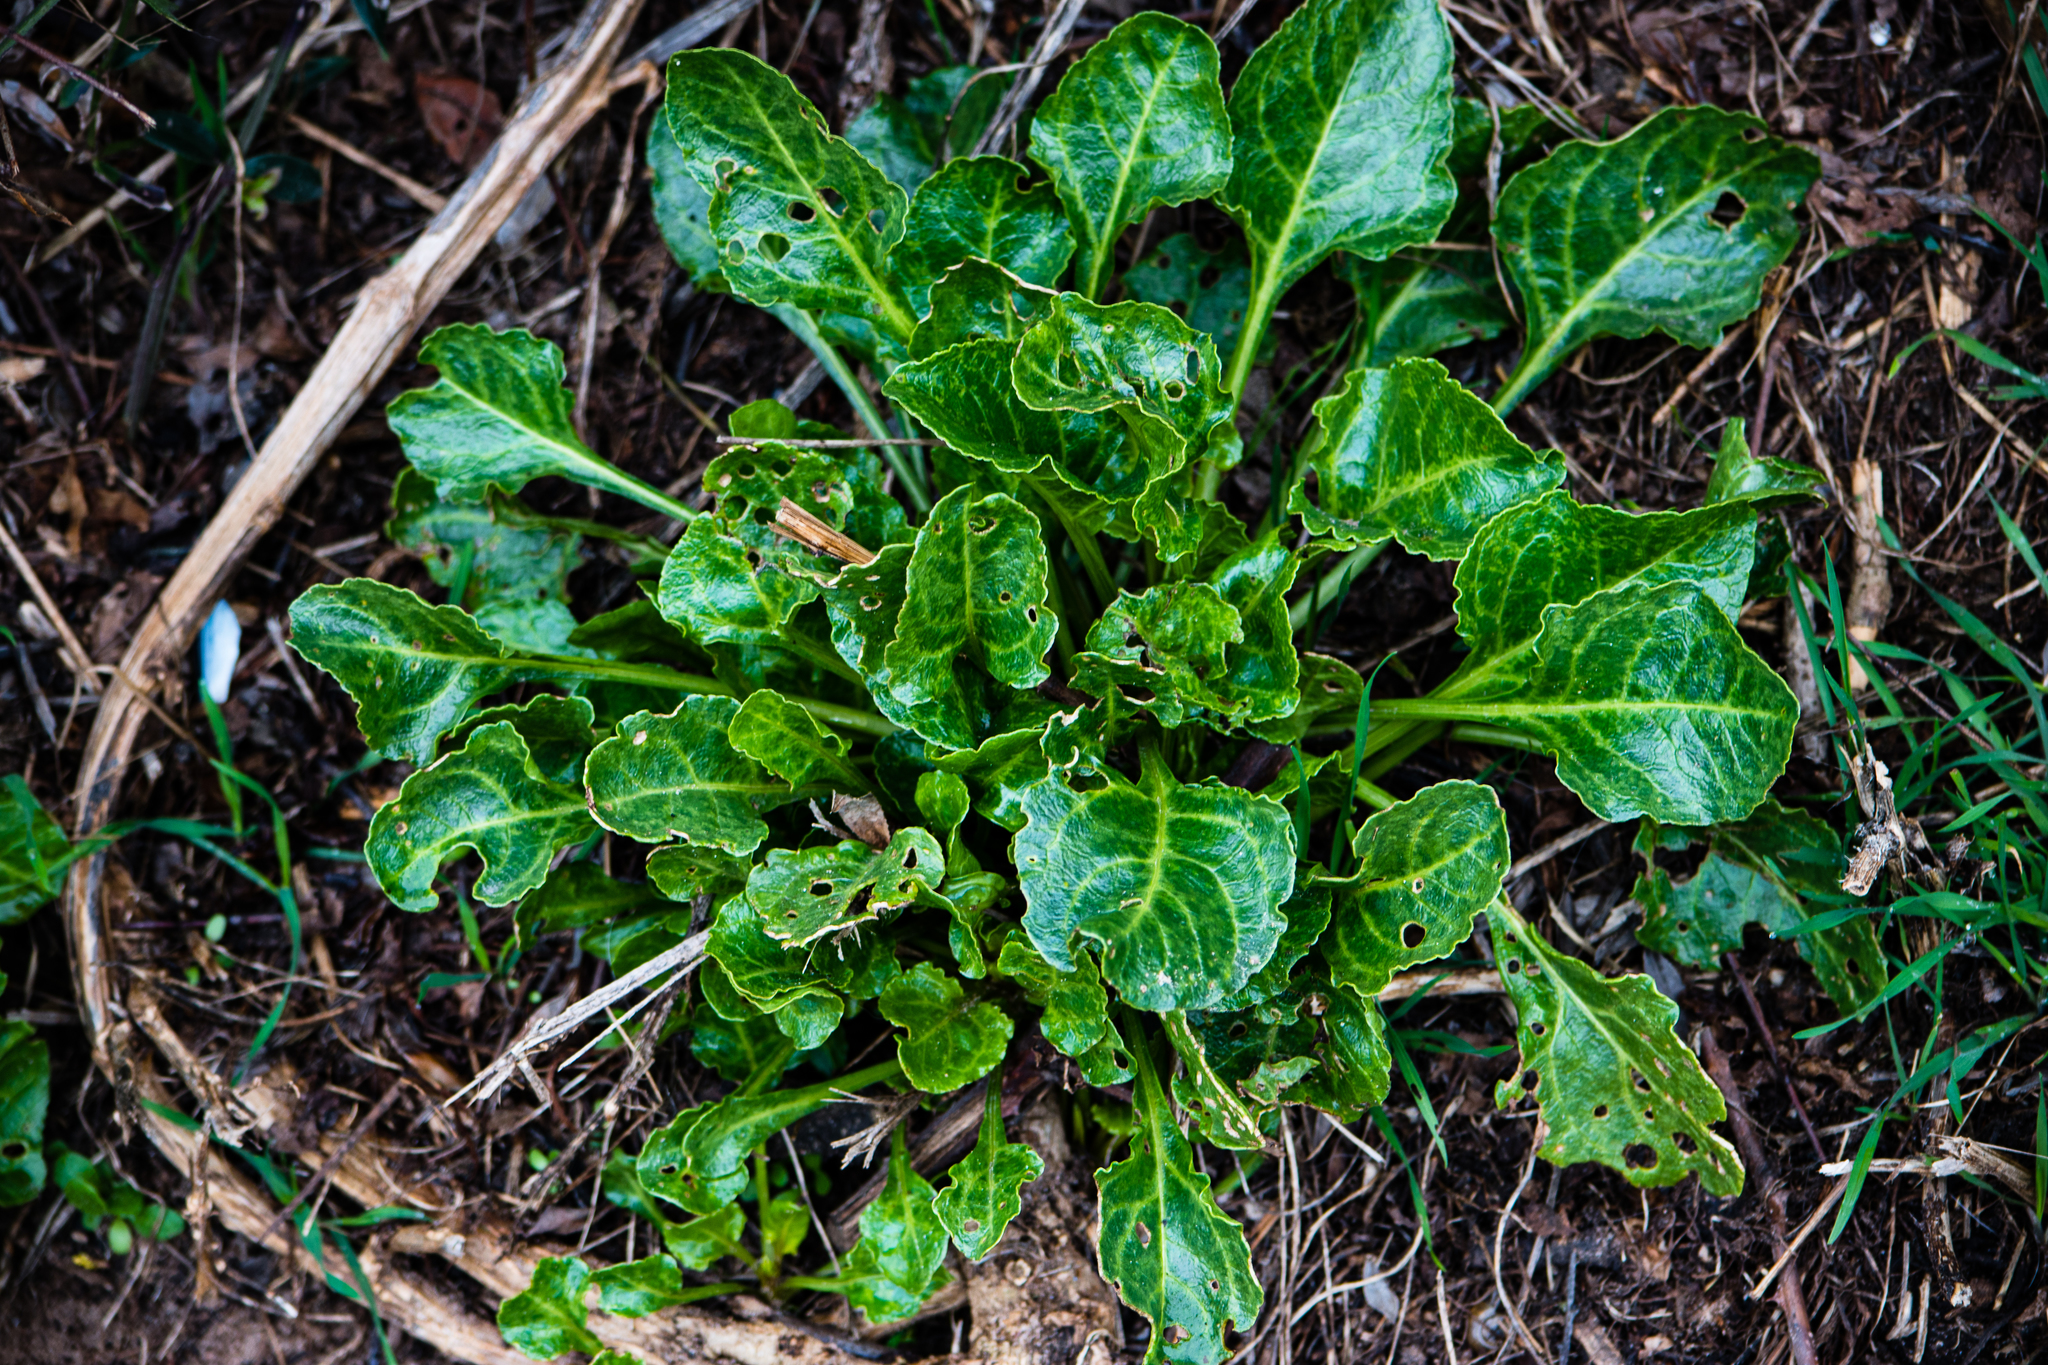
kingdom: Plantae
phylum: Tracheophyta
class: Magnoliopsida
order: Caryophyllales
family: Amaranthaceae
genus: Beta
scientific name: Beta vulgaris
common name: Beet
